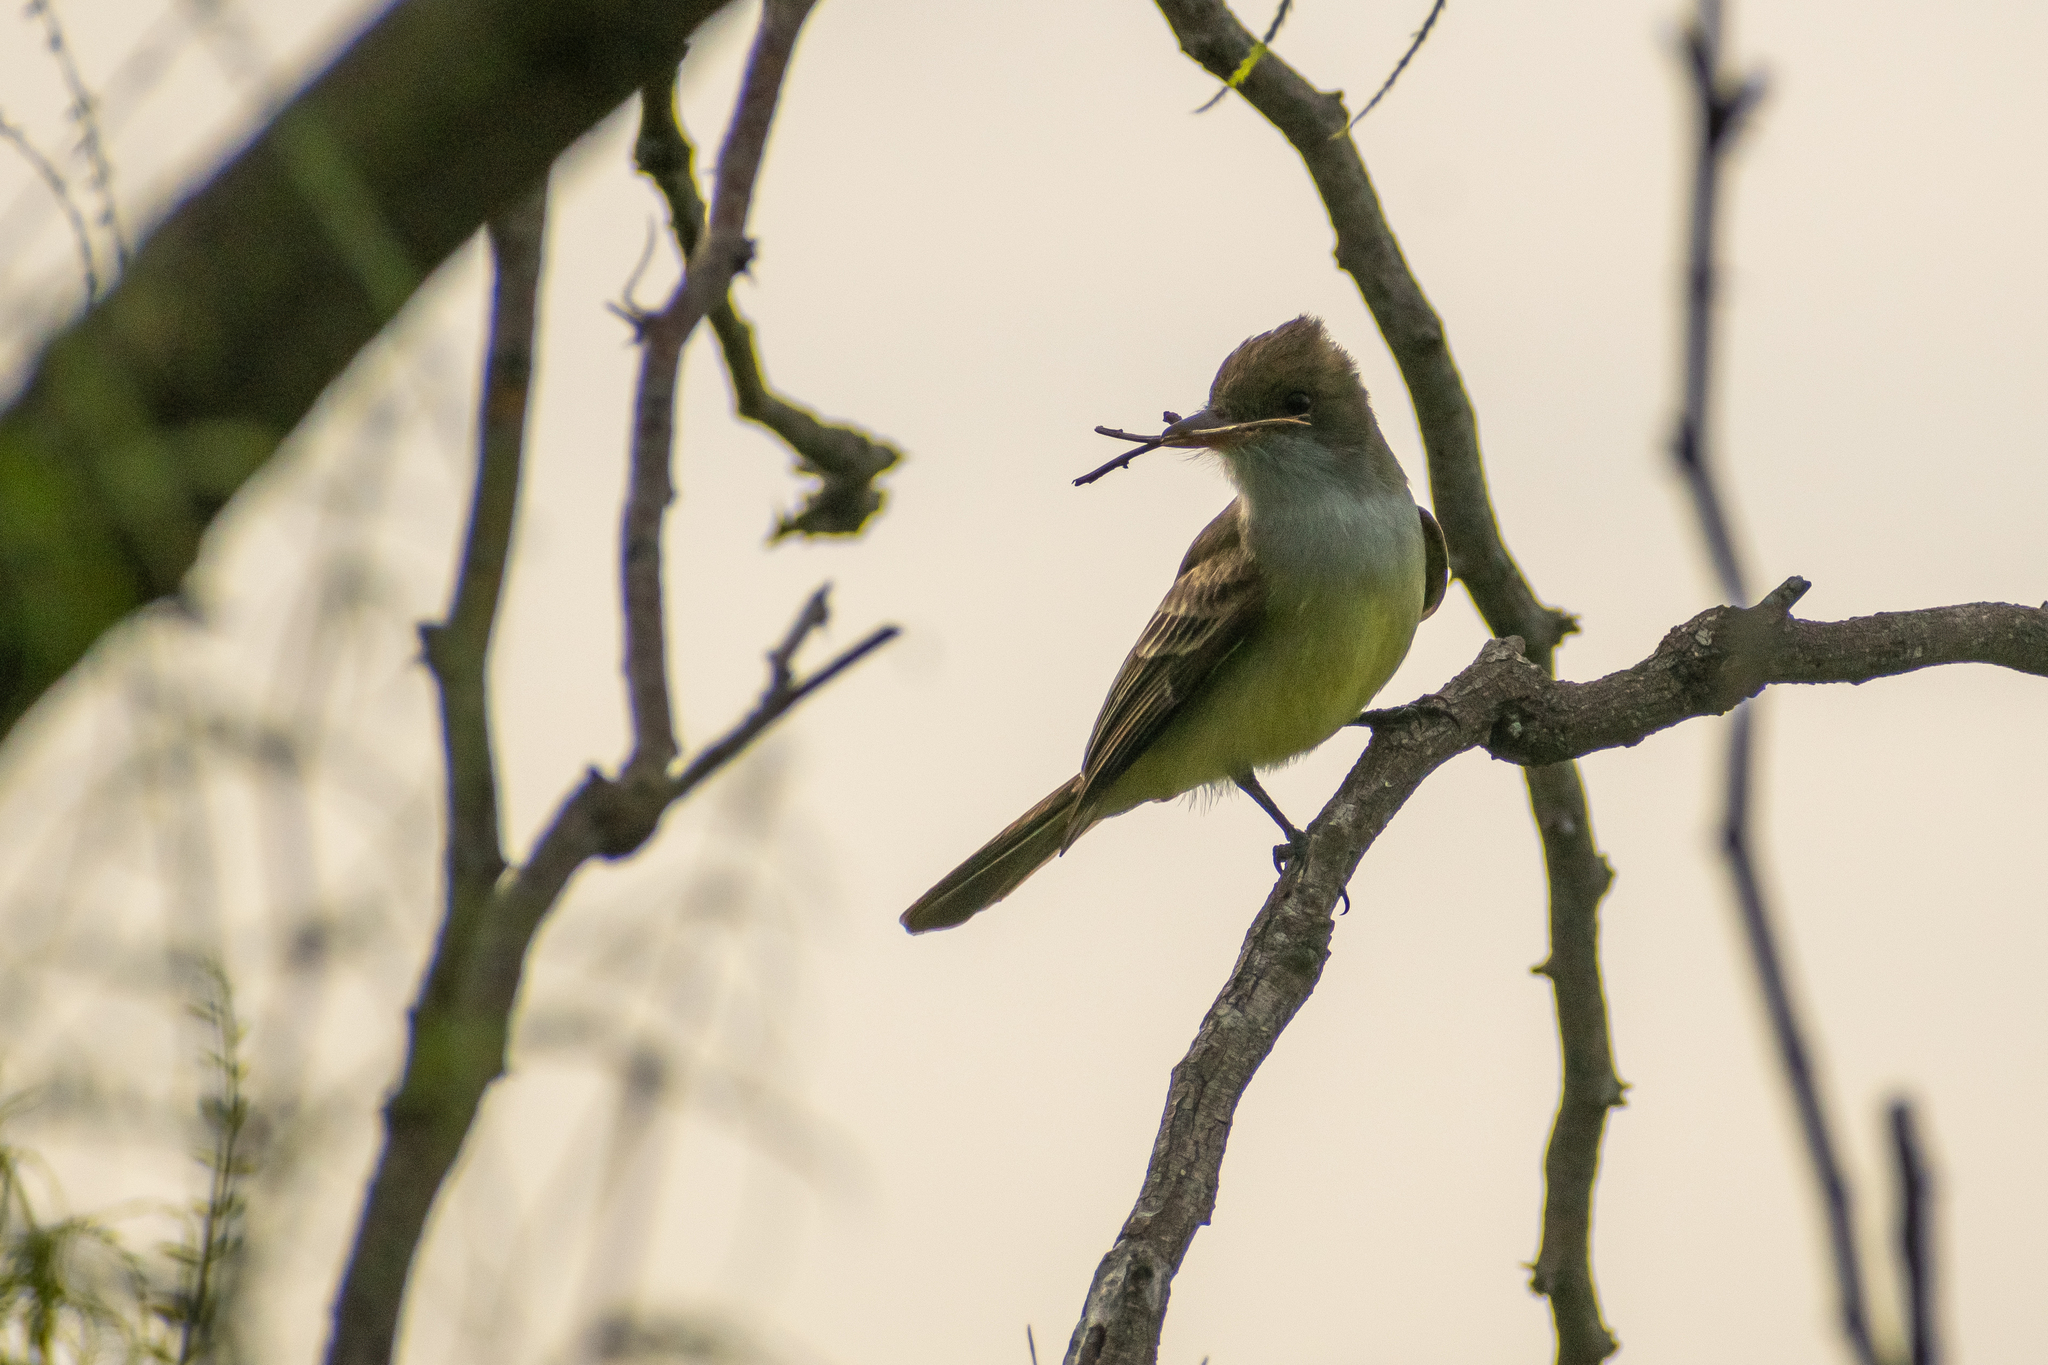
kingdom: Animalia
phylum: Chordata
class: Aves
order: Passeriformes
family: Tyrannidae
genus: Myiarchus
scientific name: Myiarchus swainsoni
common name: Swainson's flycatcher
